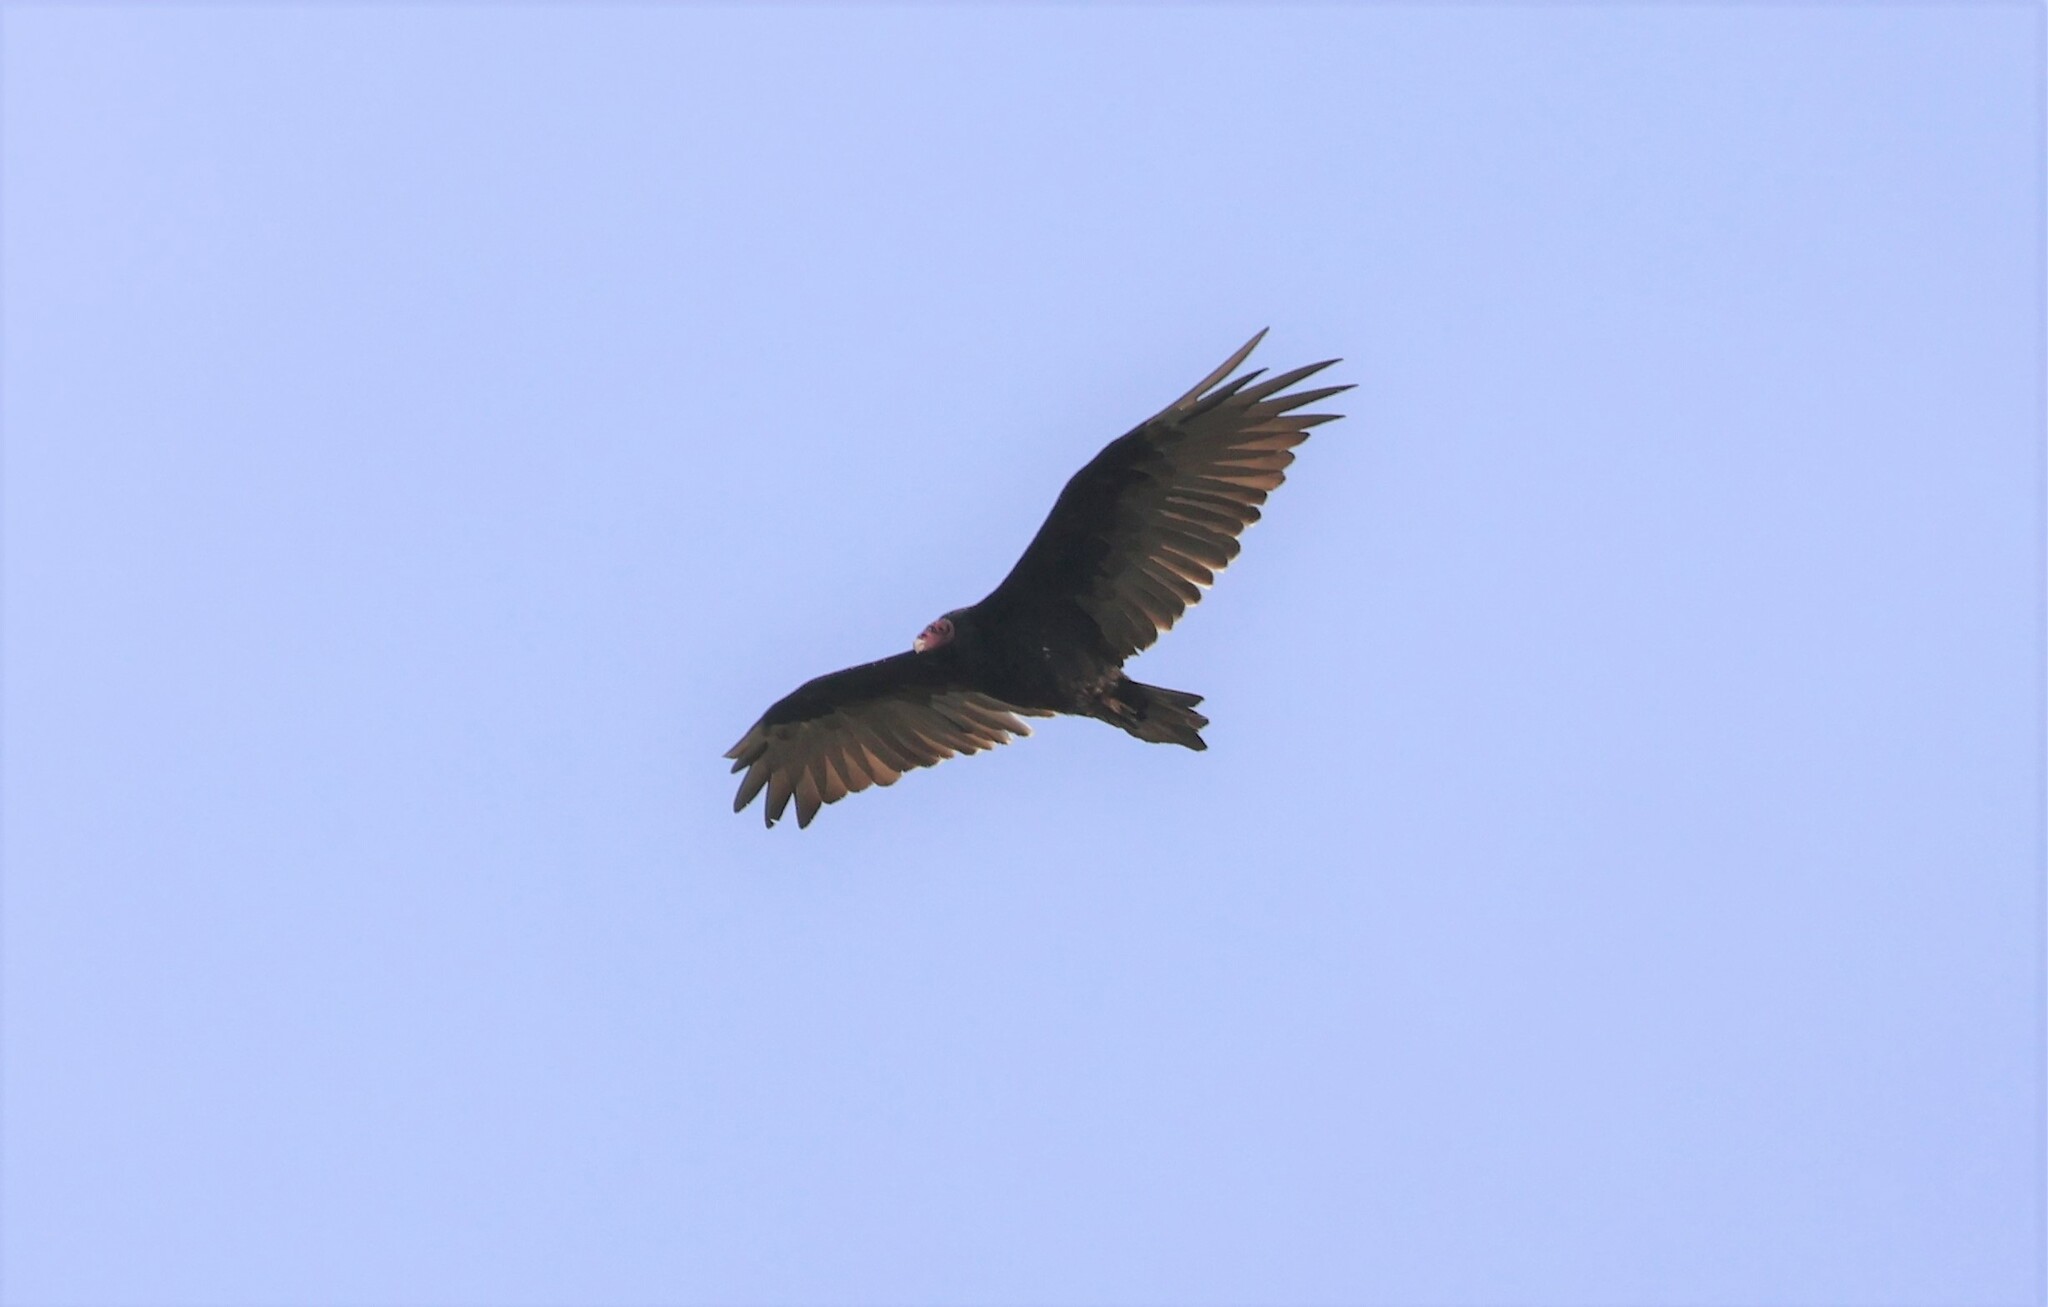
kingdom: Animalia
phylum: Chordata
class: Aves
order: Accipitriformes
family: Cathartidae
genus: Cathartes
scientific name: Cathartes aura
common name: Turkey vulture
